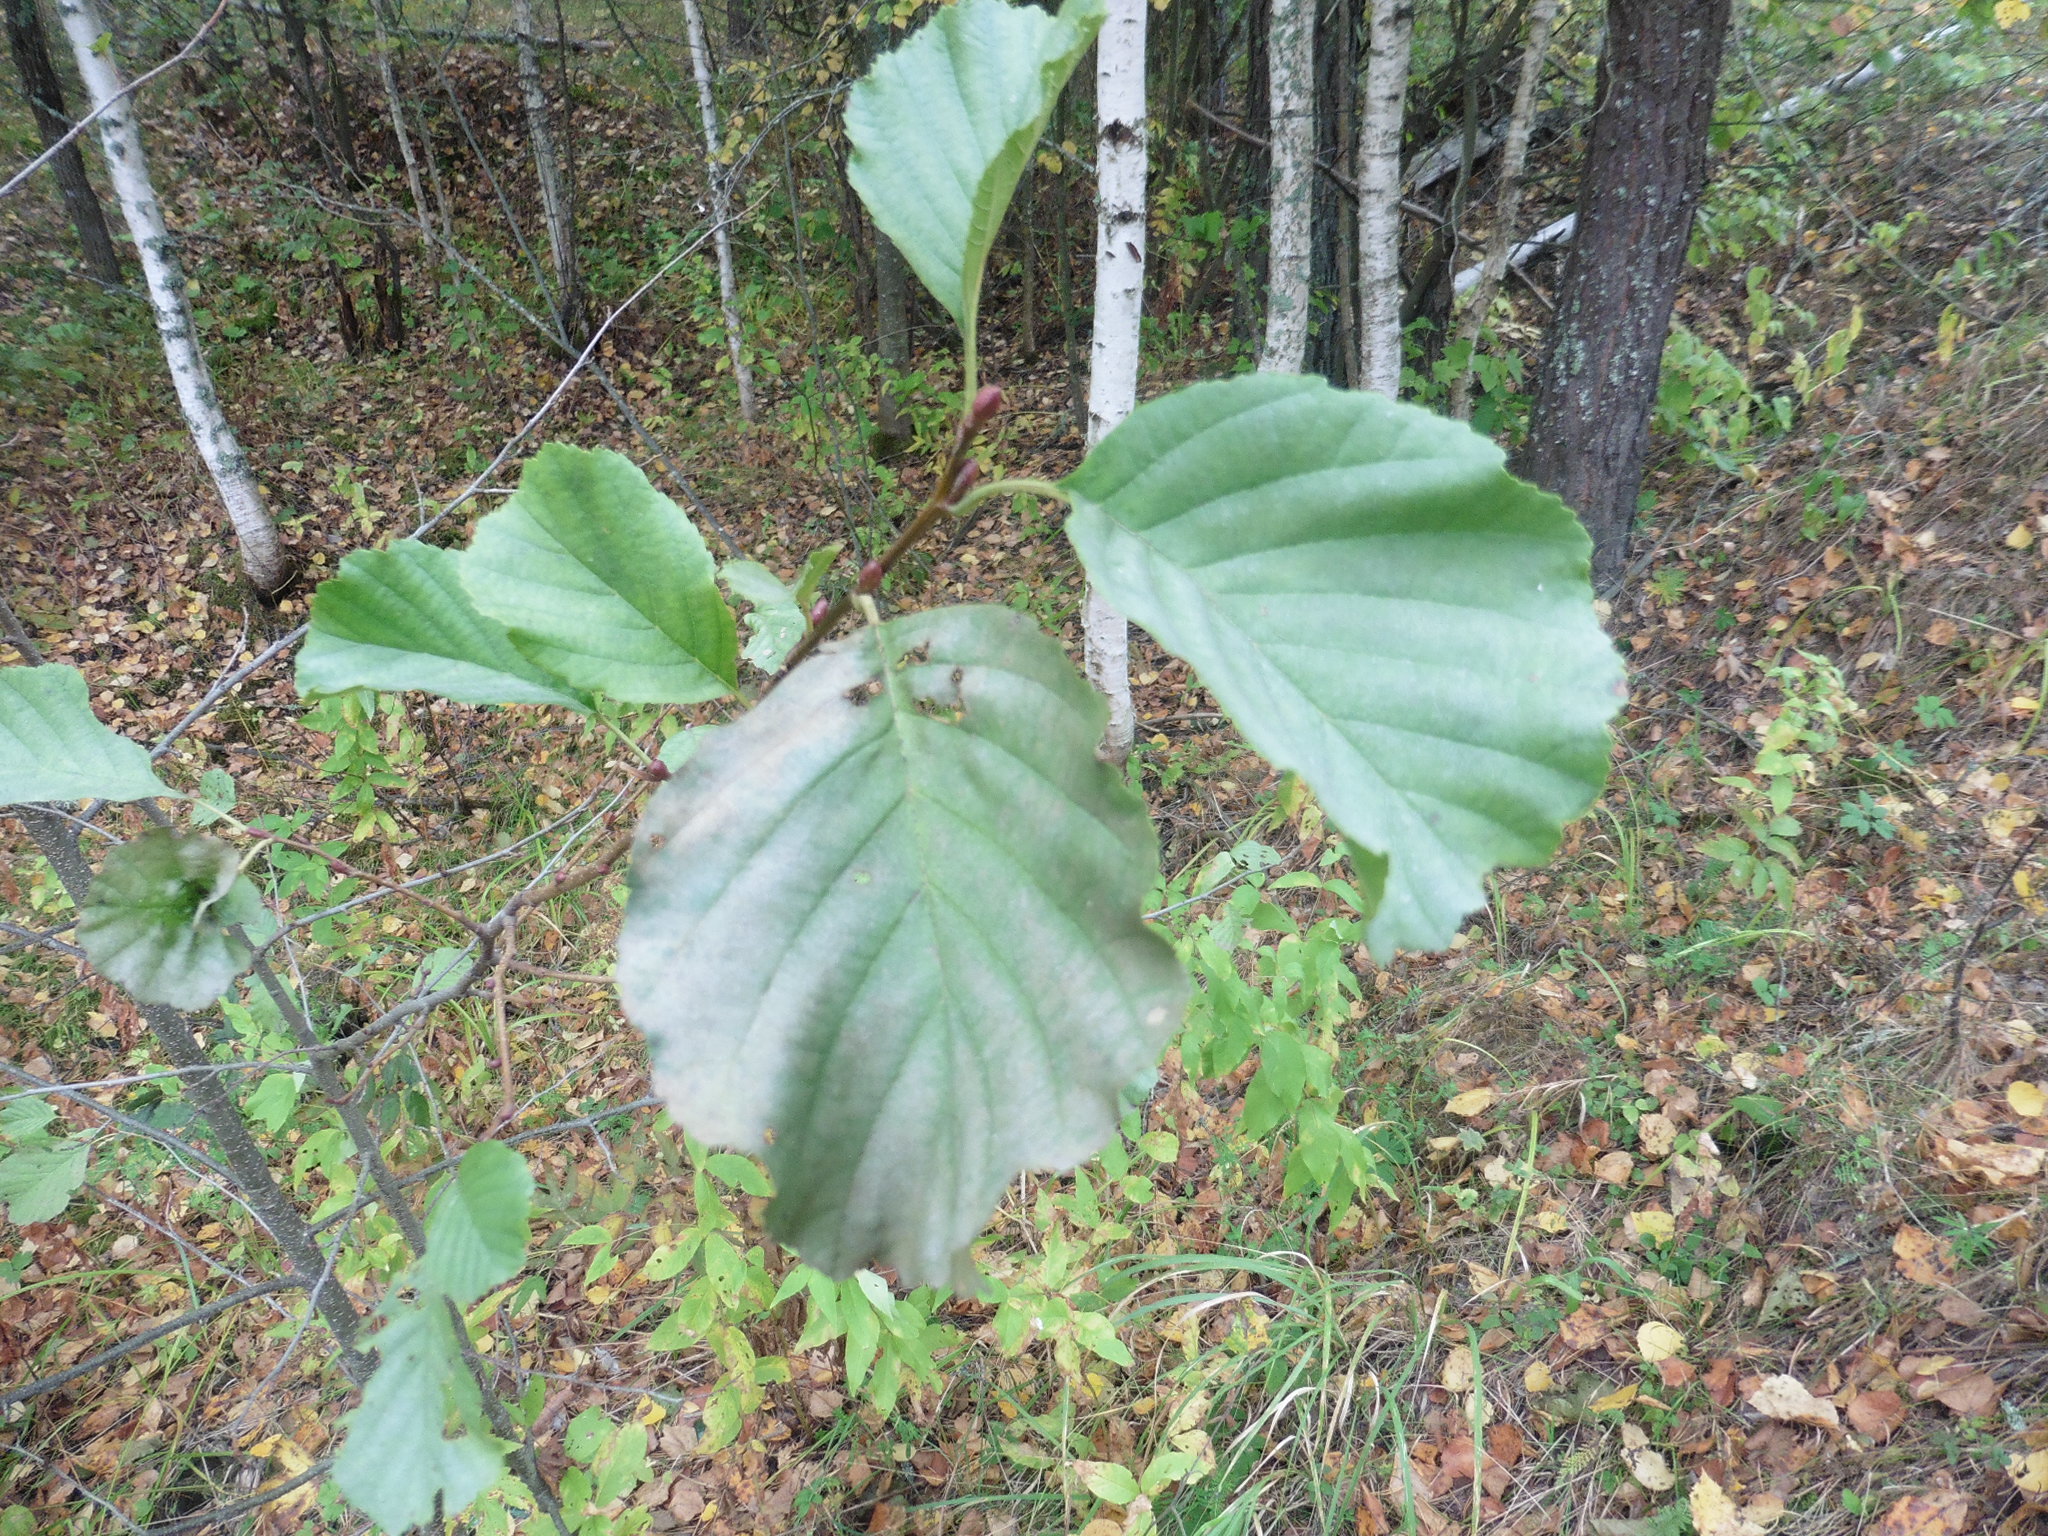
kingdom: Plantae
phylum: Tracheophyta
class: Magnoliopsida
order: Fagales
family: Betulaceae
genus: Alnus
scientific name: Alnus glutinosa
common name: Black alder
